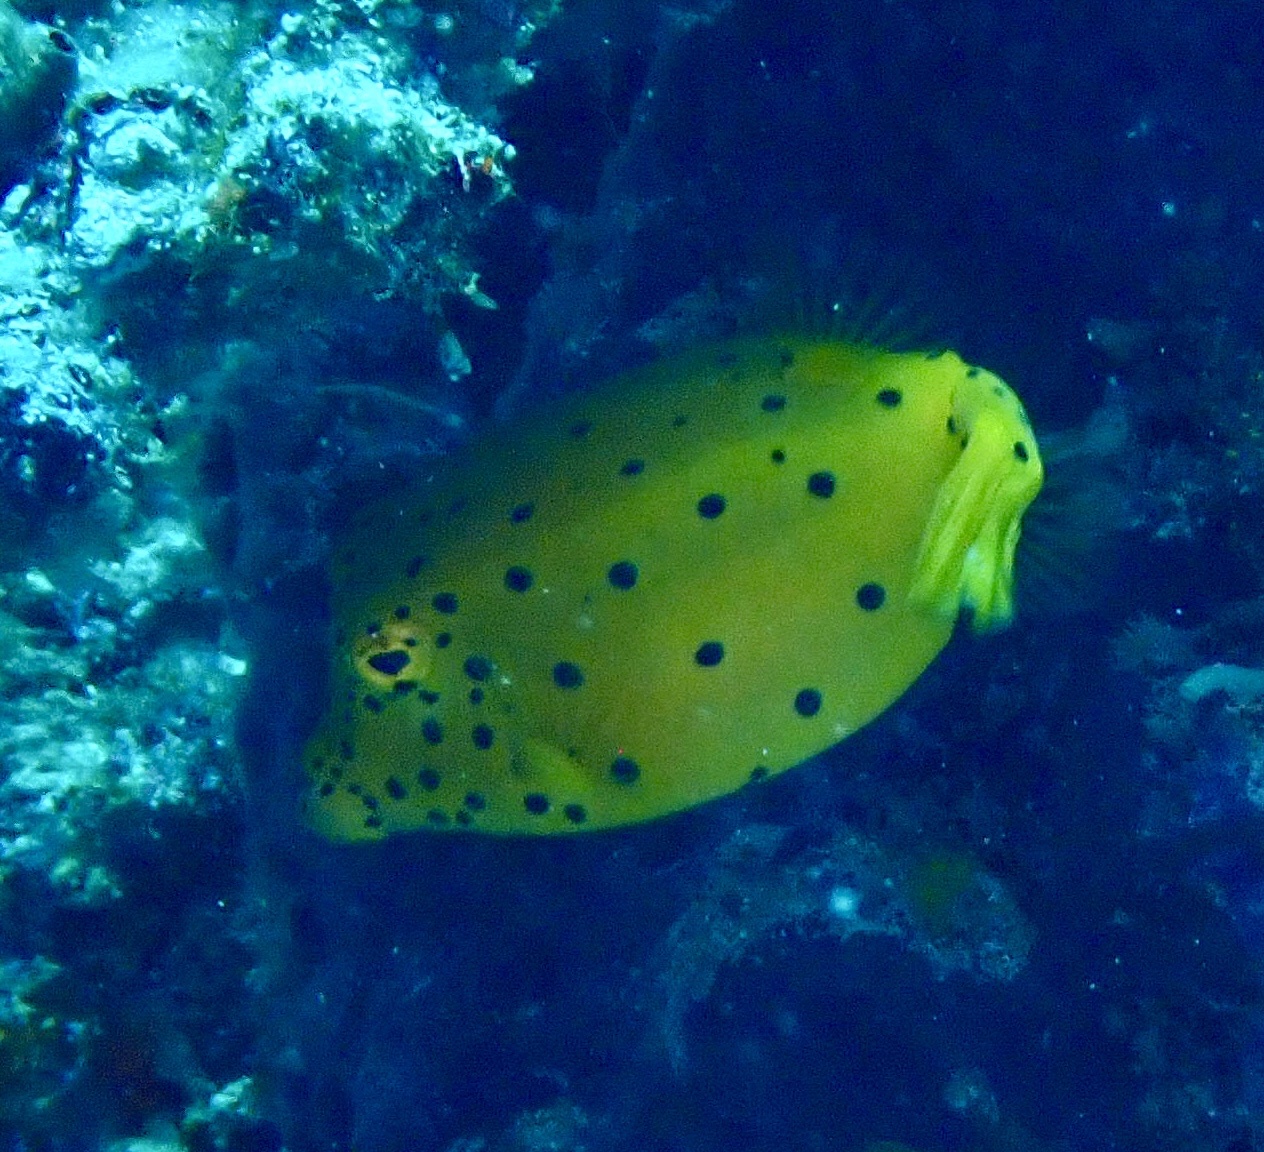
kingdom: Animalia
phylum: Chordata
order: Tetraodontiformes
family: Ostraciidae
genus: Ostracion
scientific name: Ostracion cubicus
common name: Cube trunkfish
